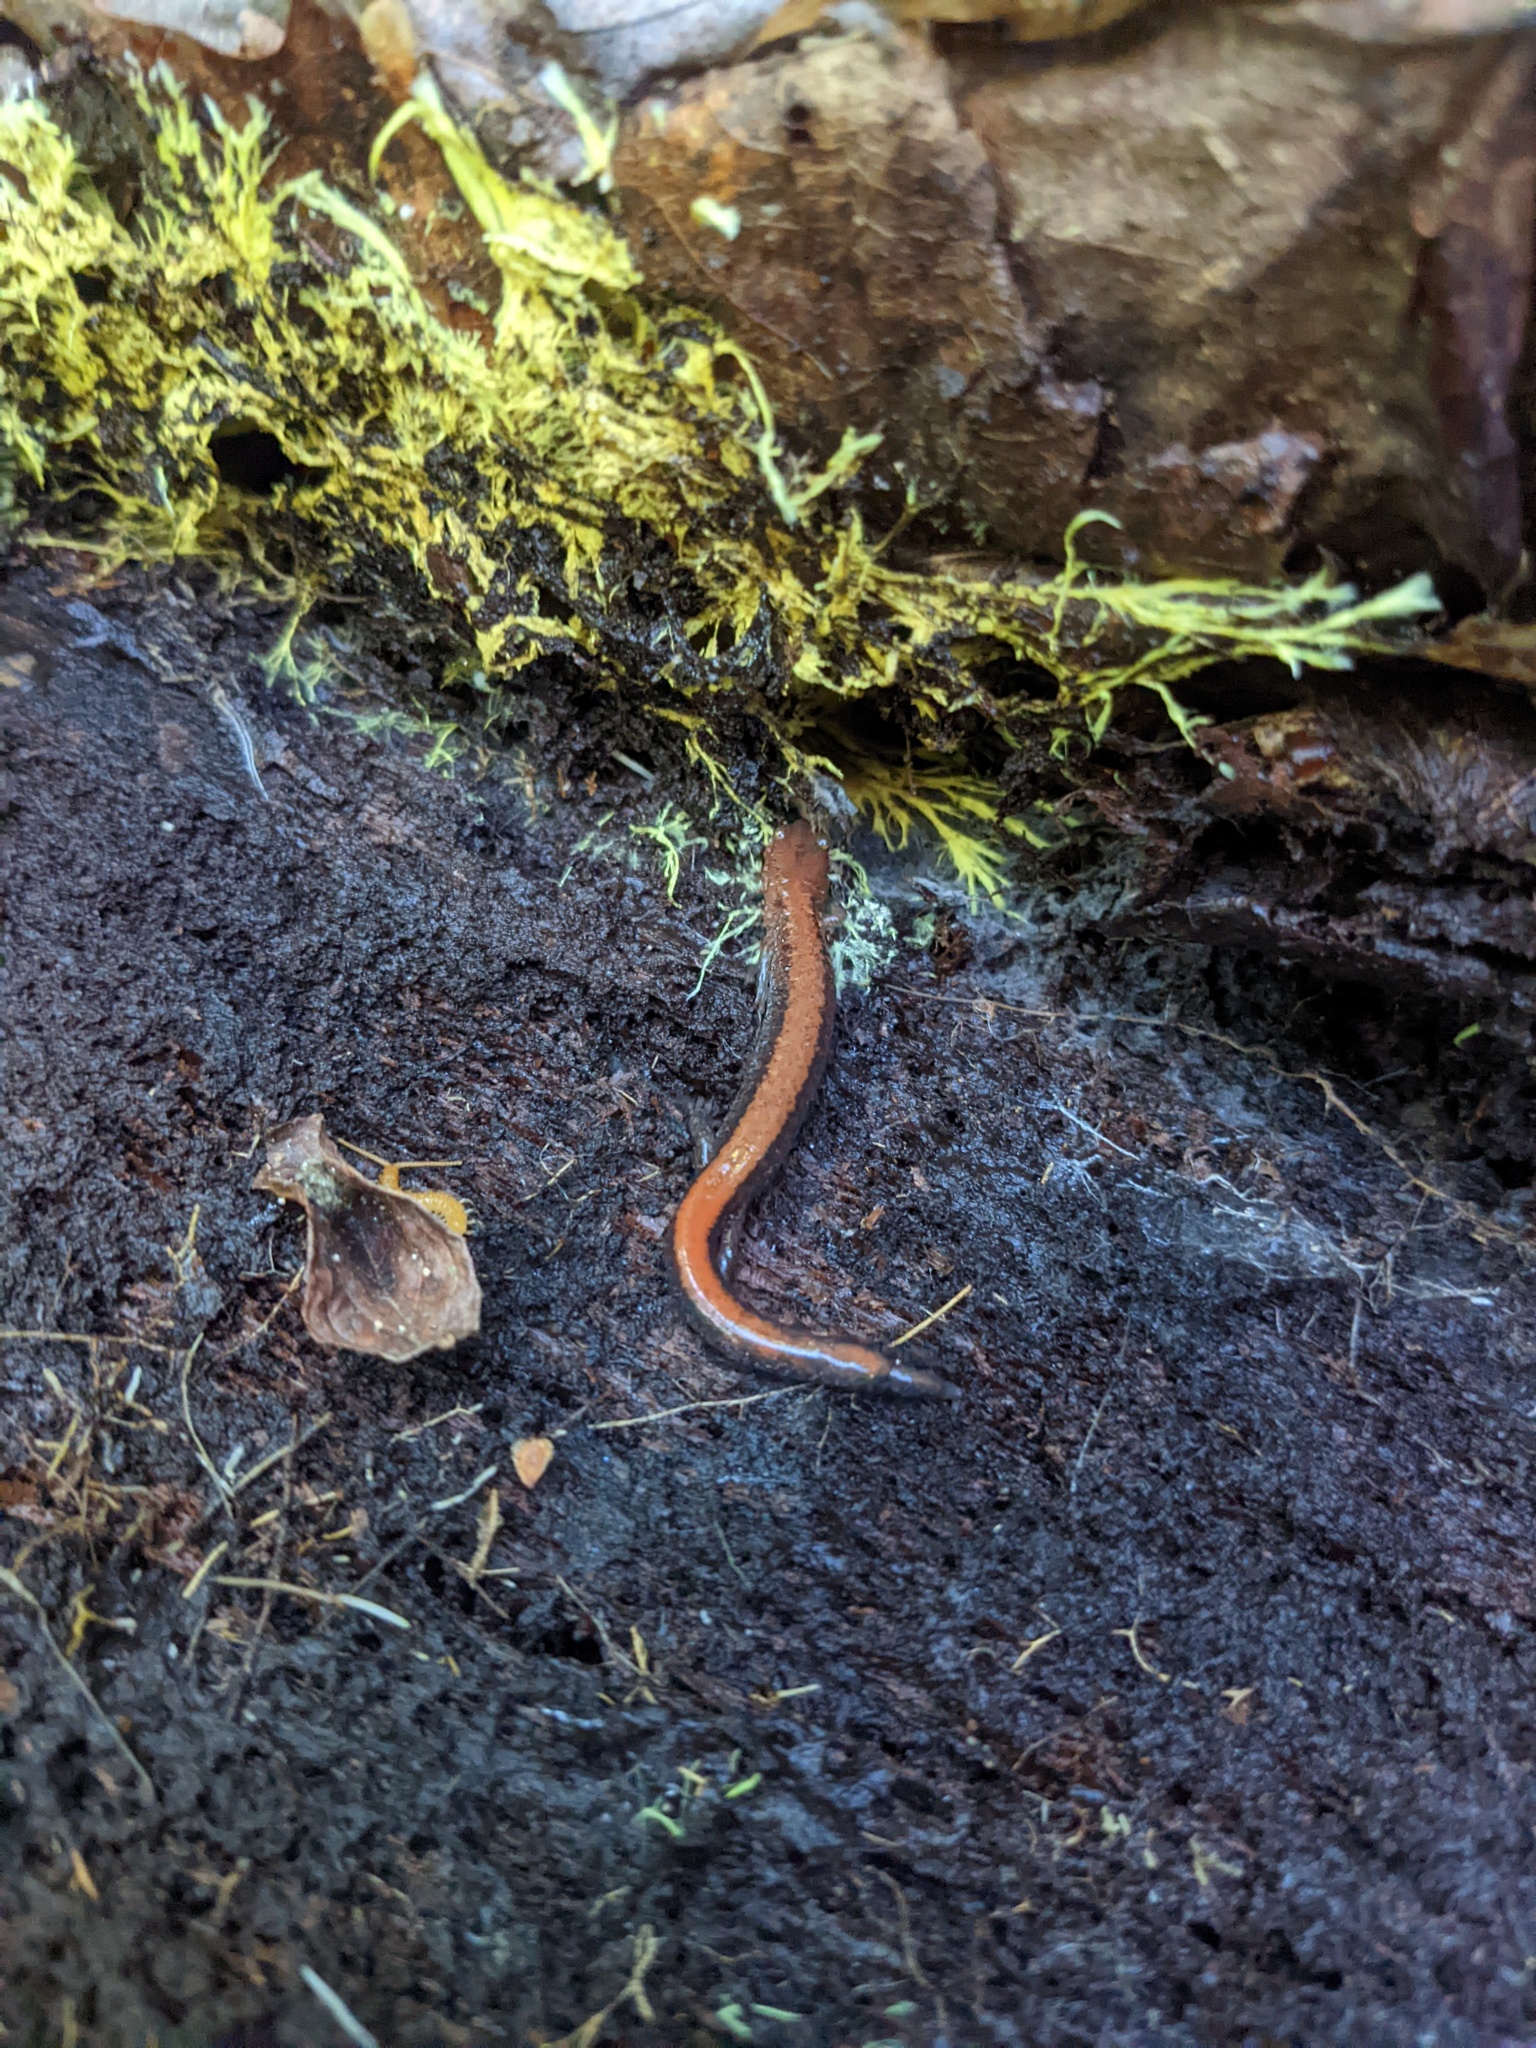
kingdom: Animalia
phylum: Chordata
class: Amphibia
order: Caudata
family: Plethodontidae
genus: Plethodon
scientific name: Plethodon cinereus
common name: Redback salamander
